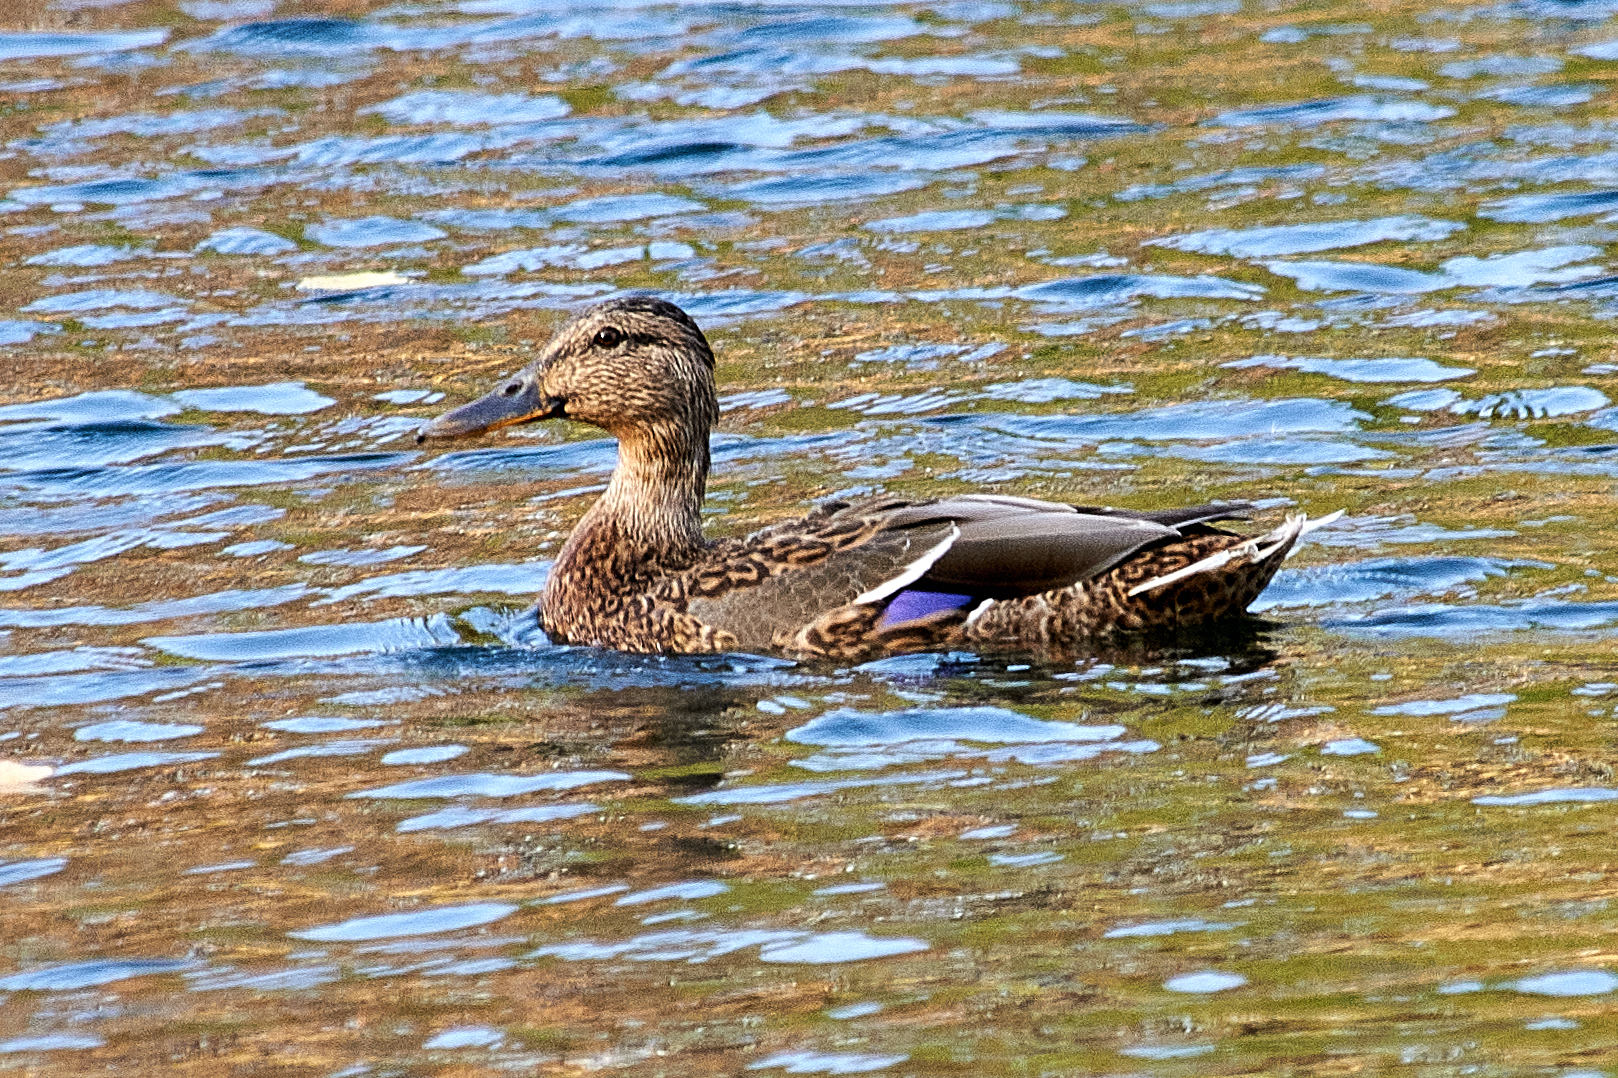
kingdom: Animalia
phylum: Chordata
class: Aves
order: Anseriformes
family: Anatidae
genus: Anas
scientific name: Anas platyrhynchos
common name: Mallard
